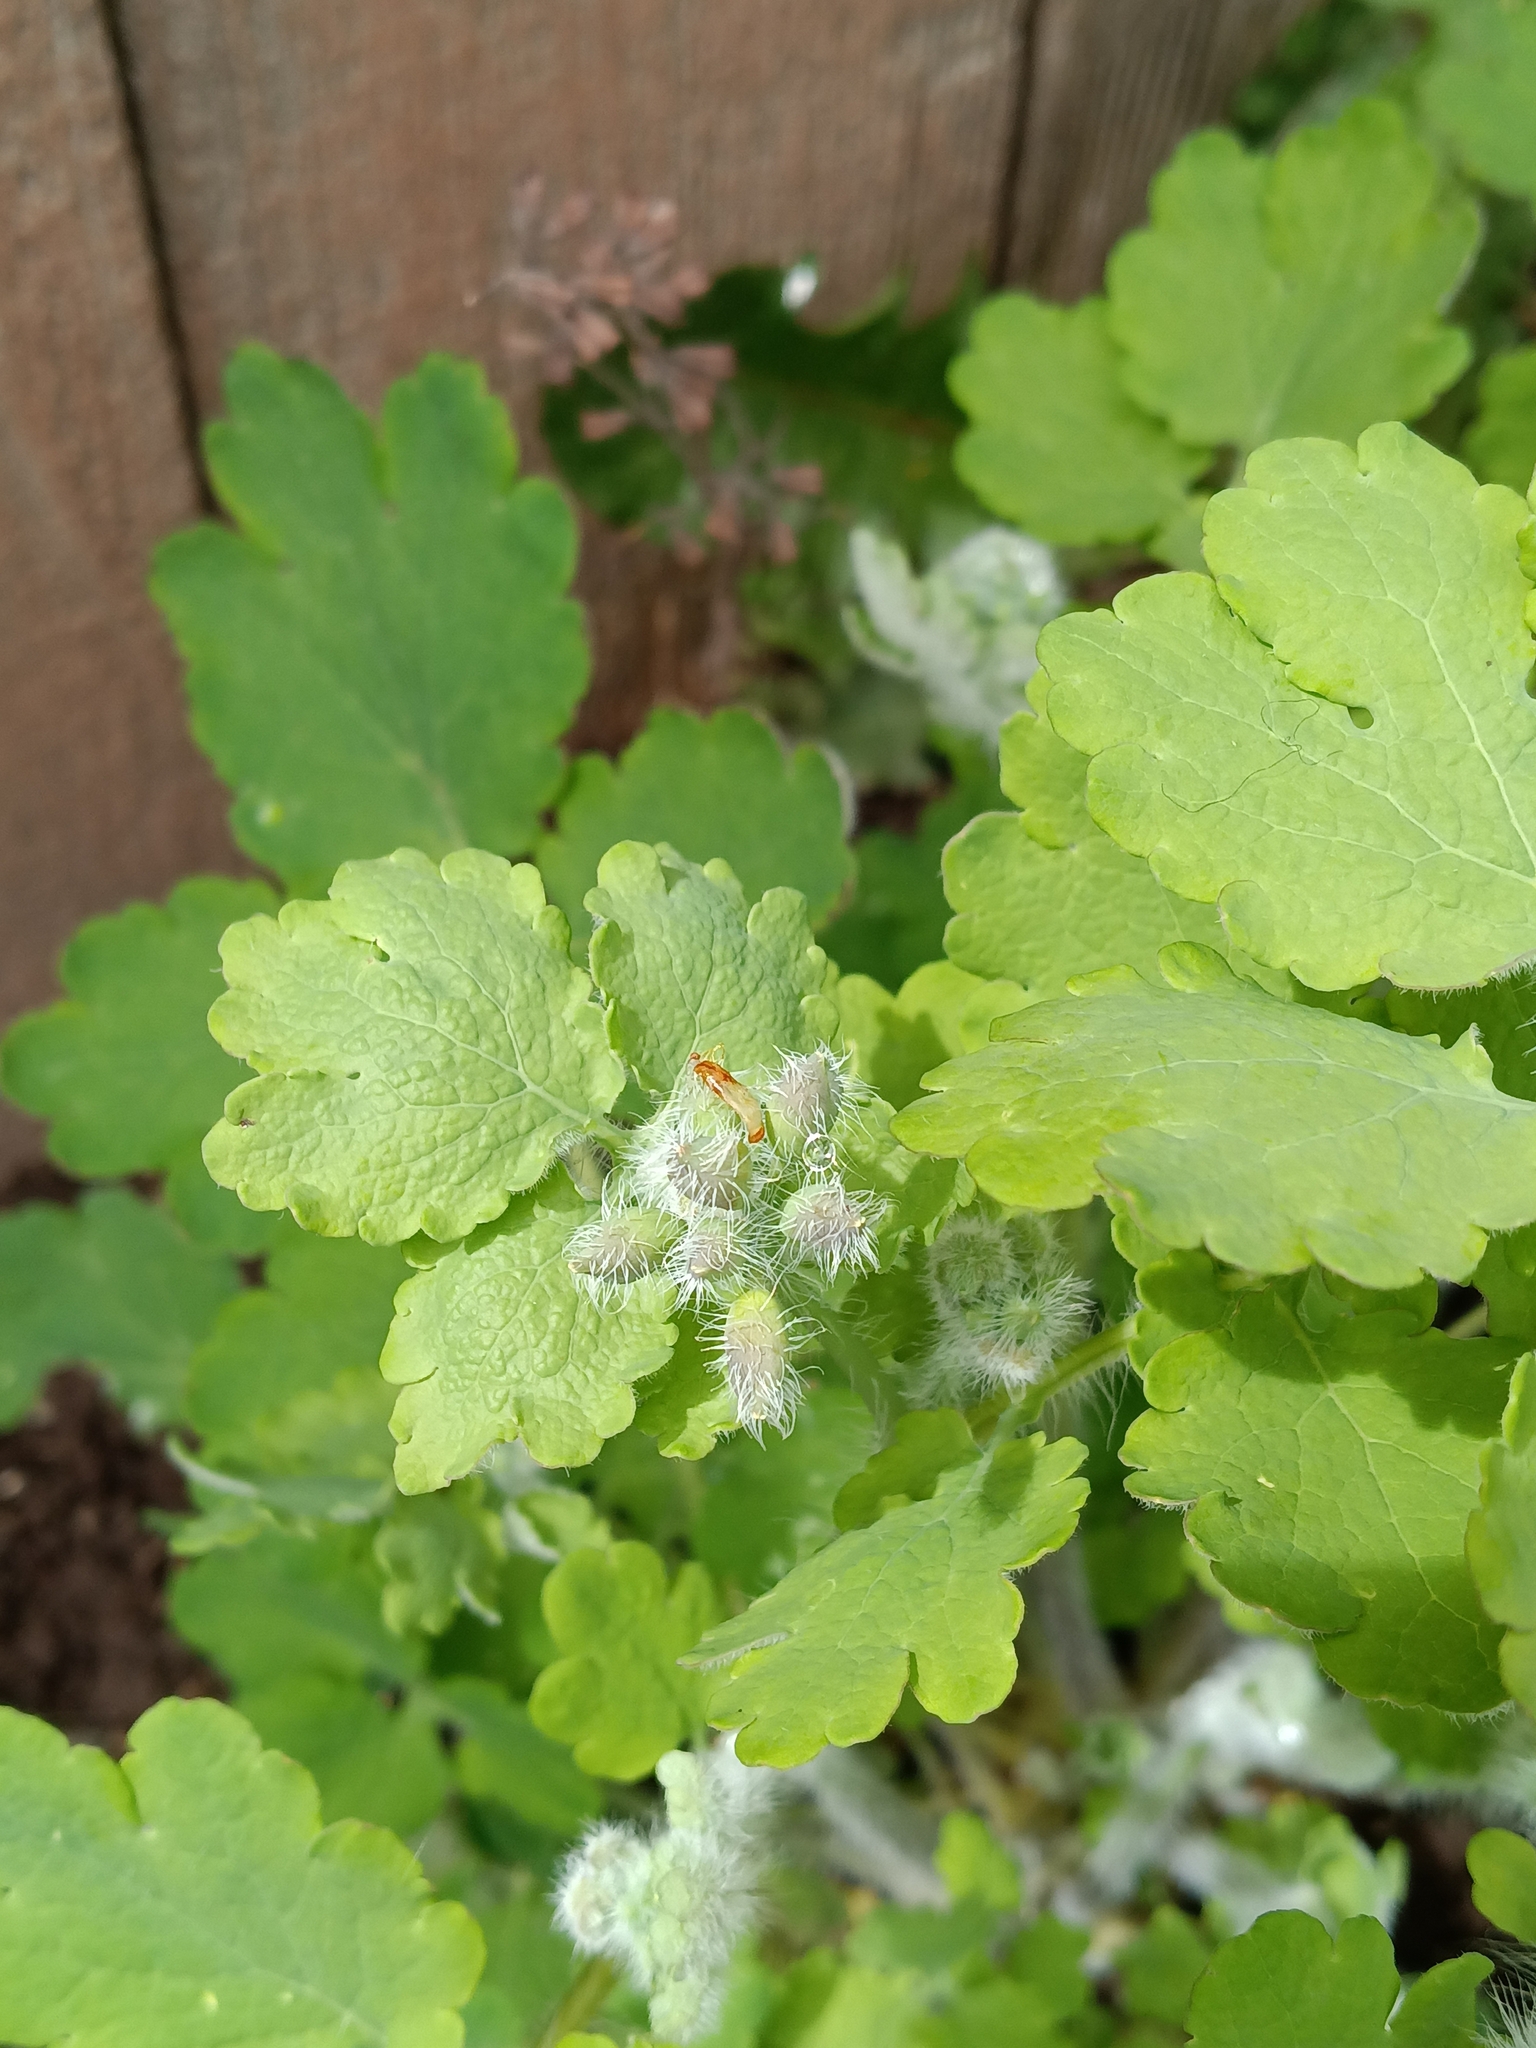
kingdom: Plantae
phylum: Tracheophyta
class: Magnoliopsida
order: Ranunculales
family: Papaveraceae
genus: Chelidonium
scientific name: Chelidonium majus
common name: Greater celandine
